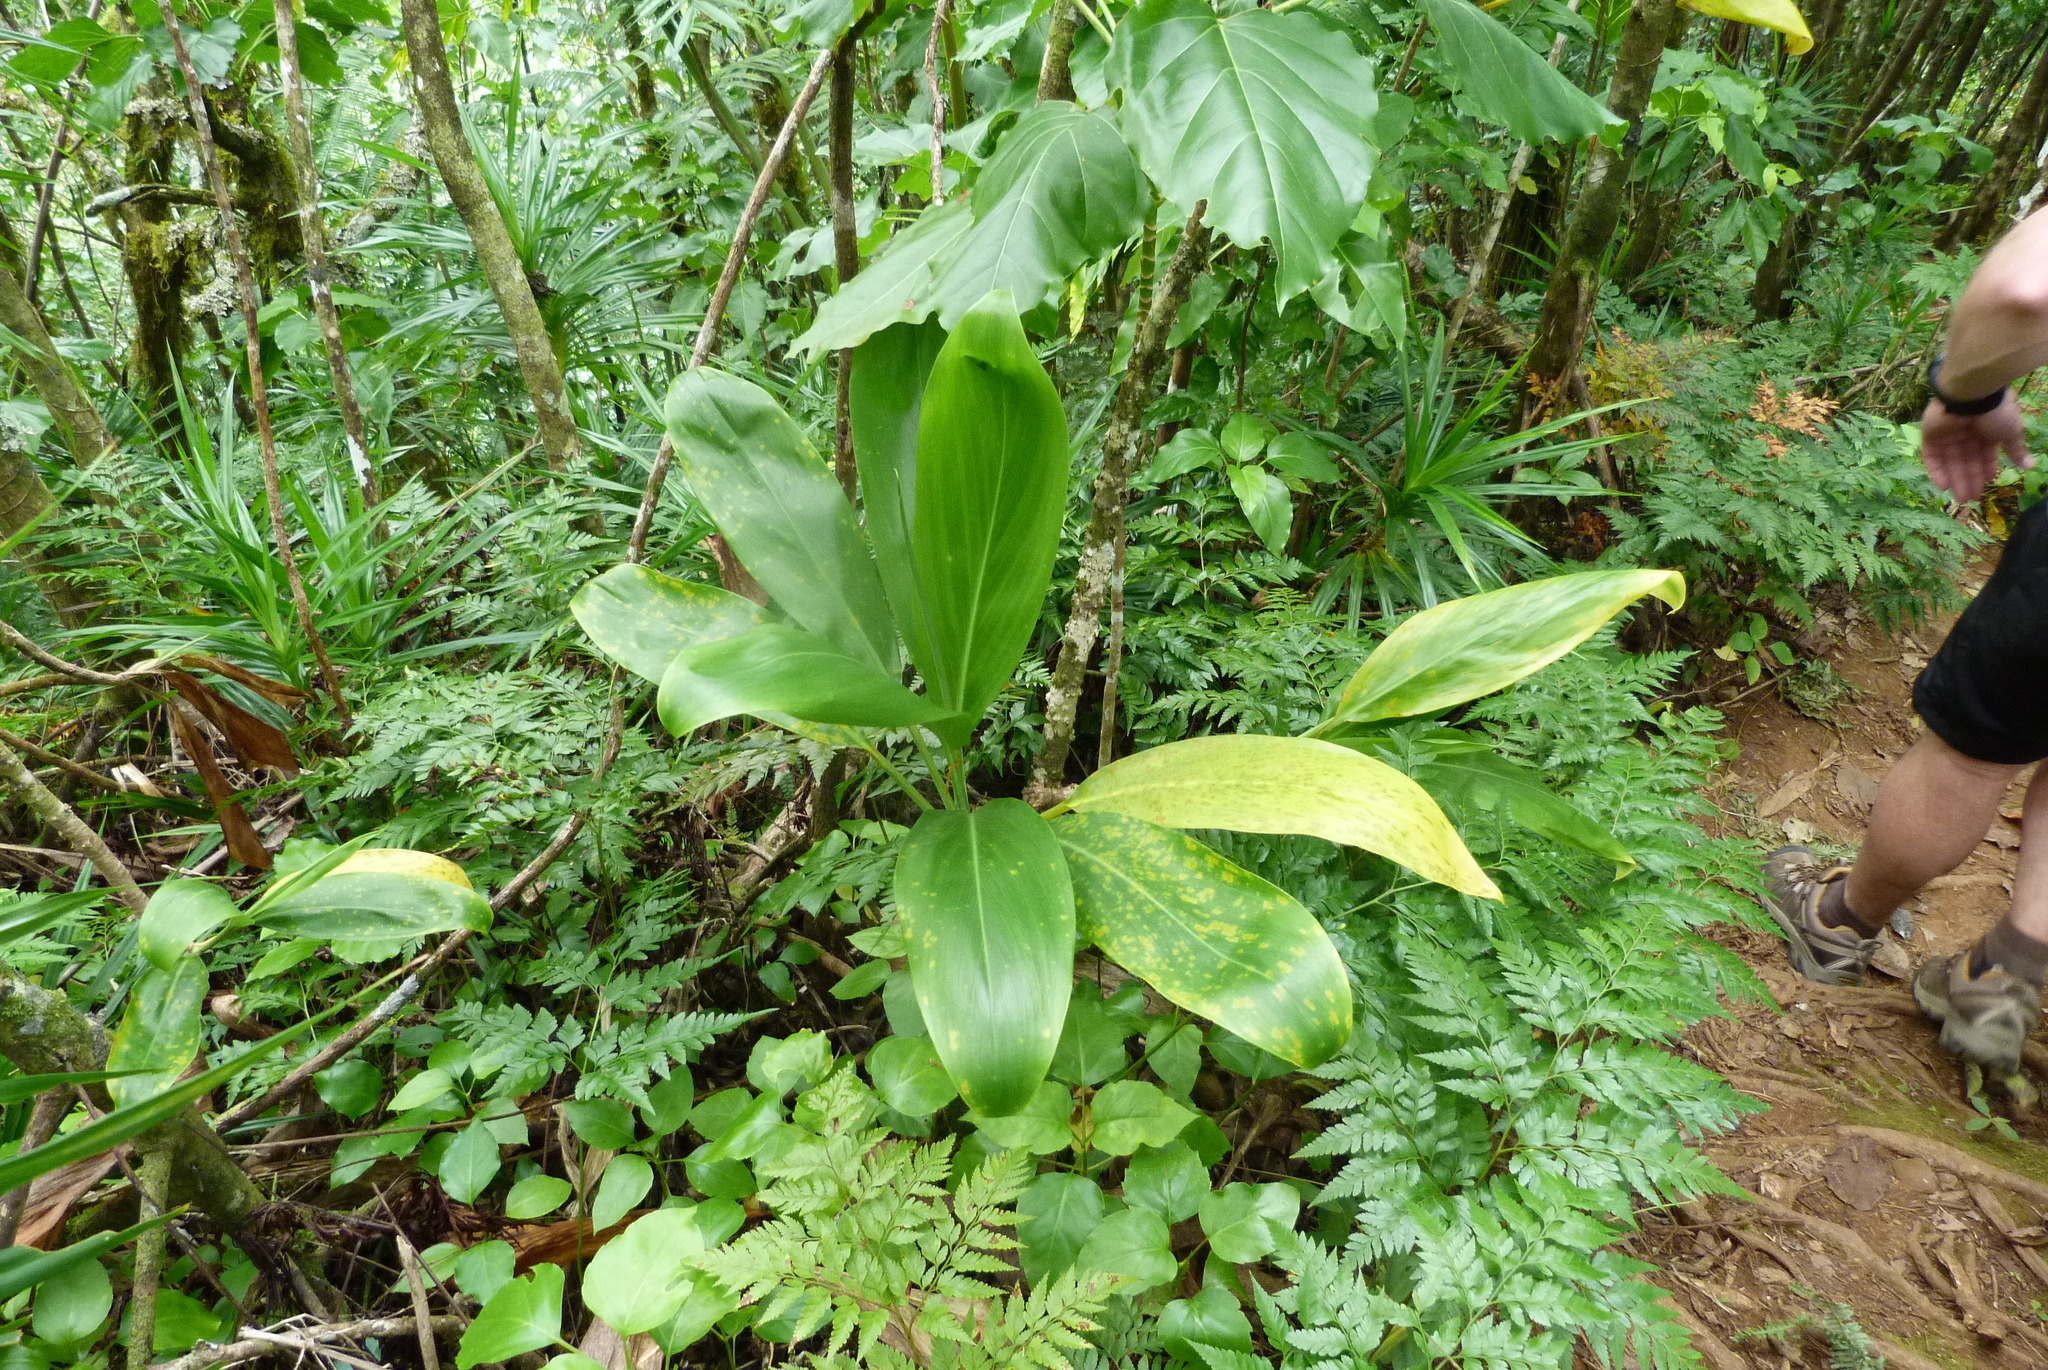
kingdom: Plantae
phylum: Tracheophyta
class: Liliopsida
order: Asparagales
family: Asparagaceae
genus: Cordyline
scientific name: Cordyline fruticosa
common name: Good-luck-plant
